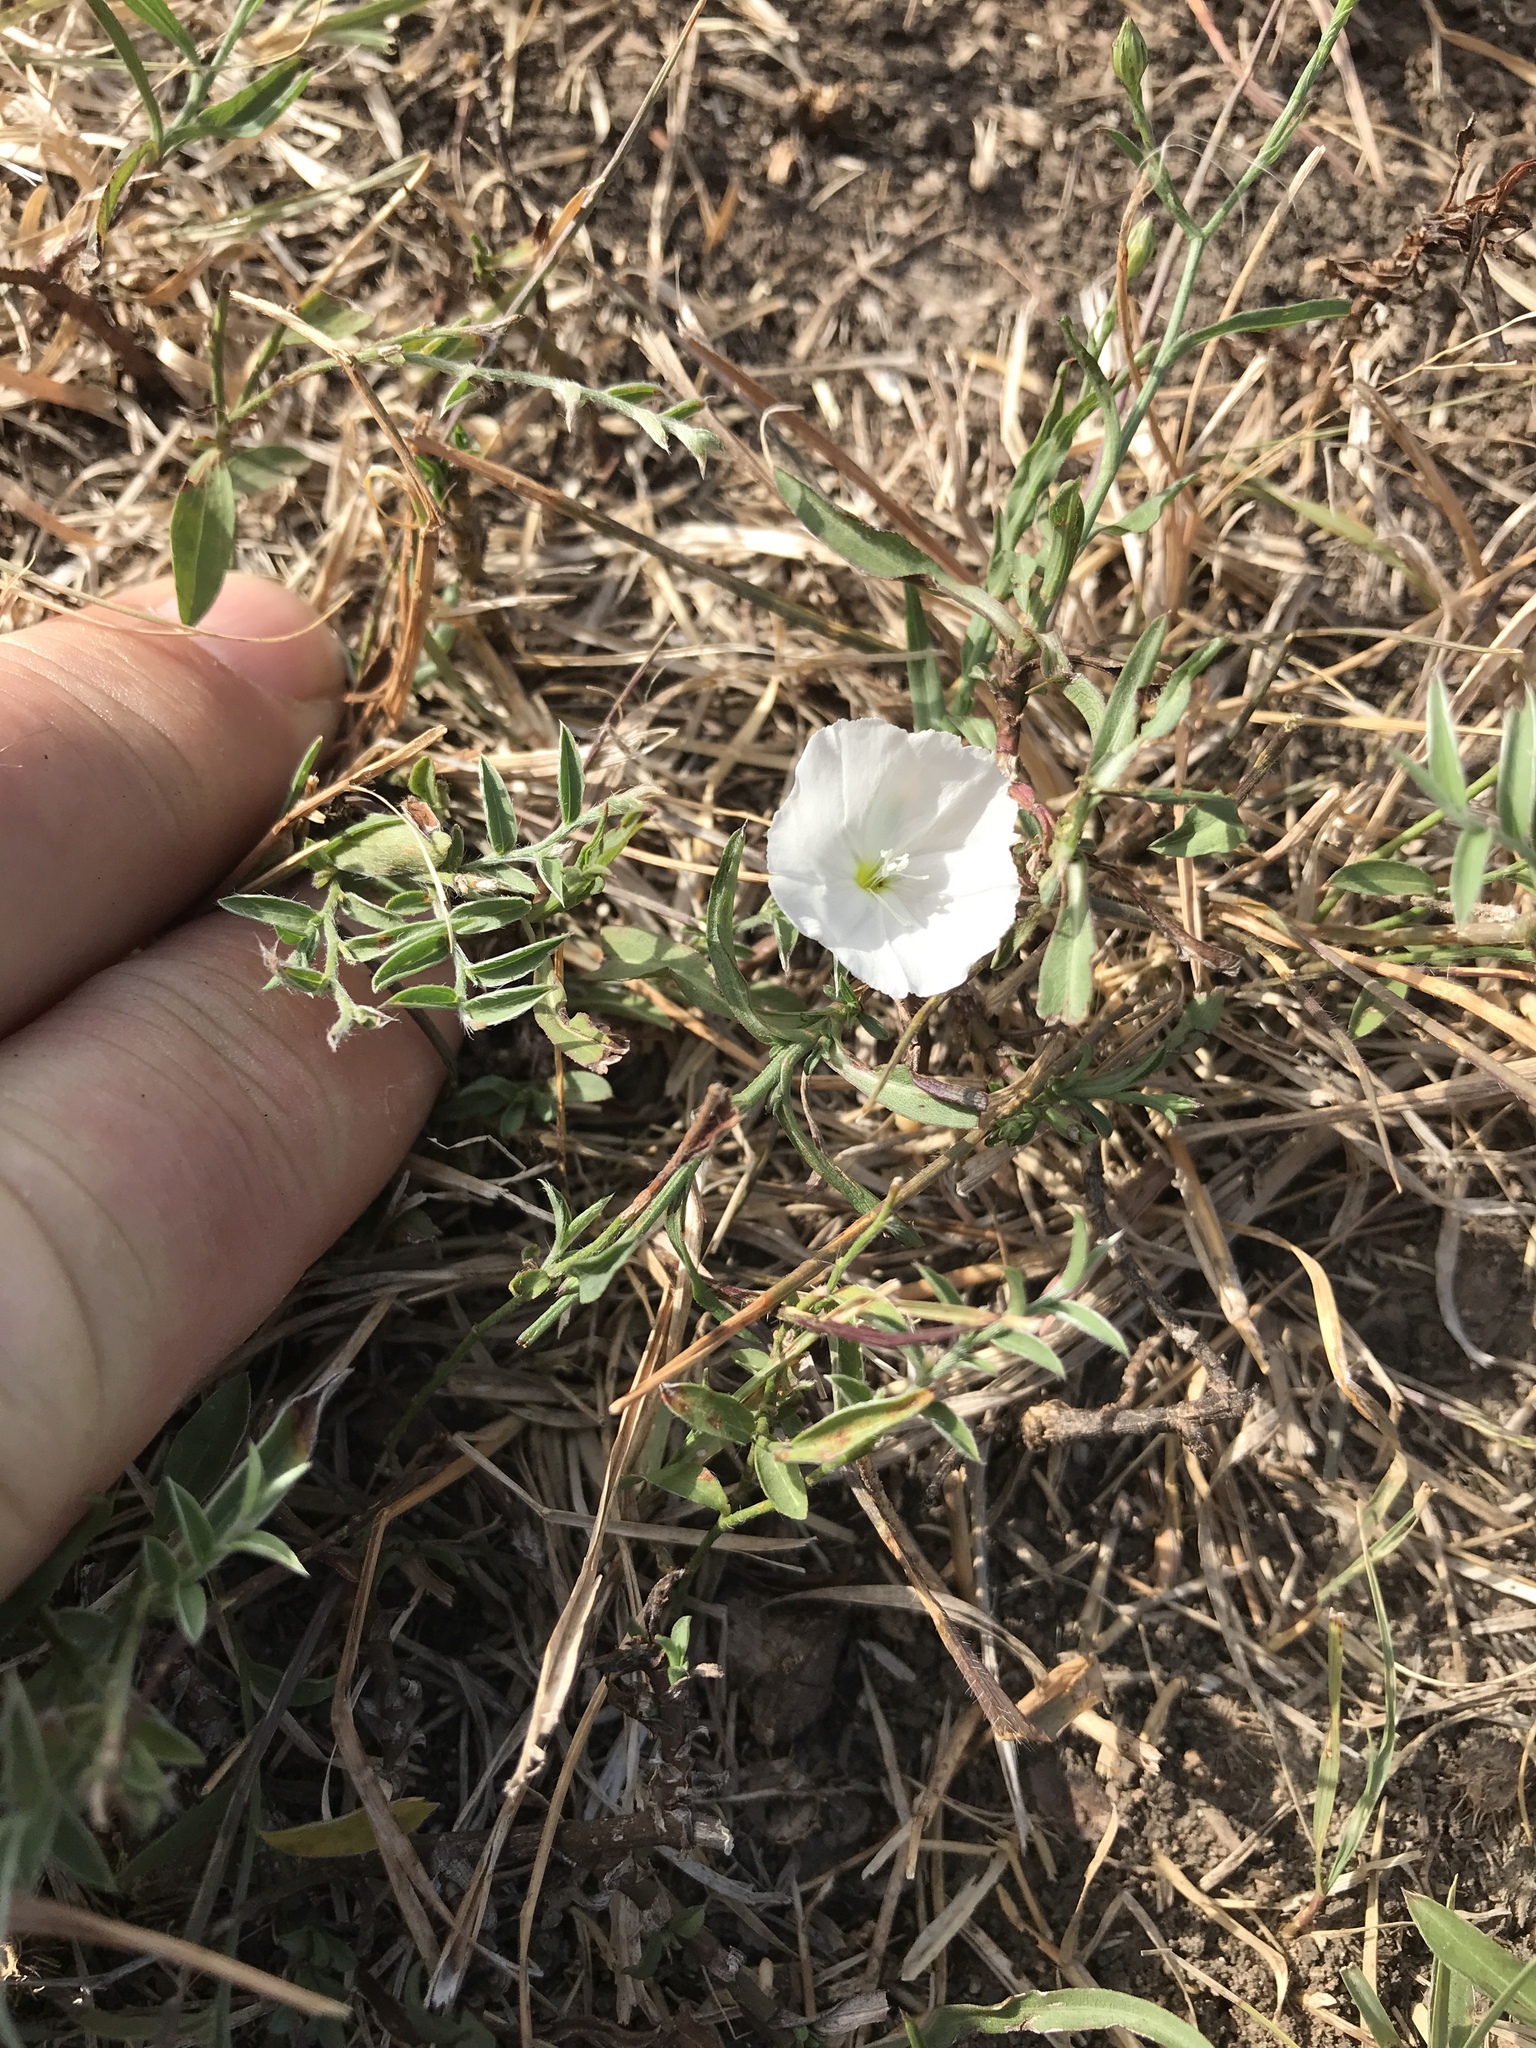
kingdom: Plantae
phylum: Tracheophyta
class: Magnoliopsida
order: Solanales
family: Convolvulaceae
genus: Evolvulus
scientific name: Evolvulus sericeus
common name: Blue dots
